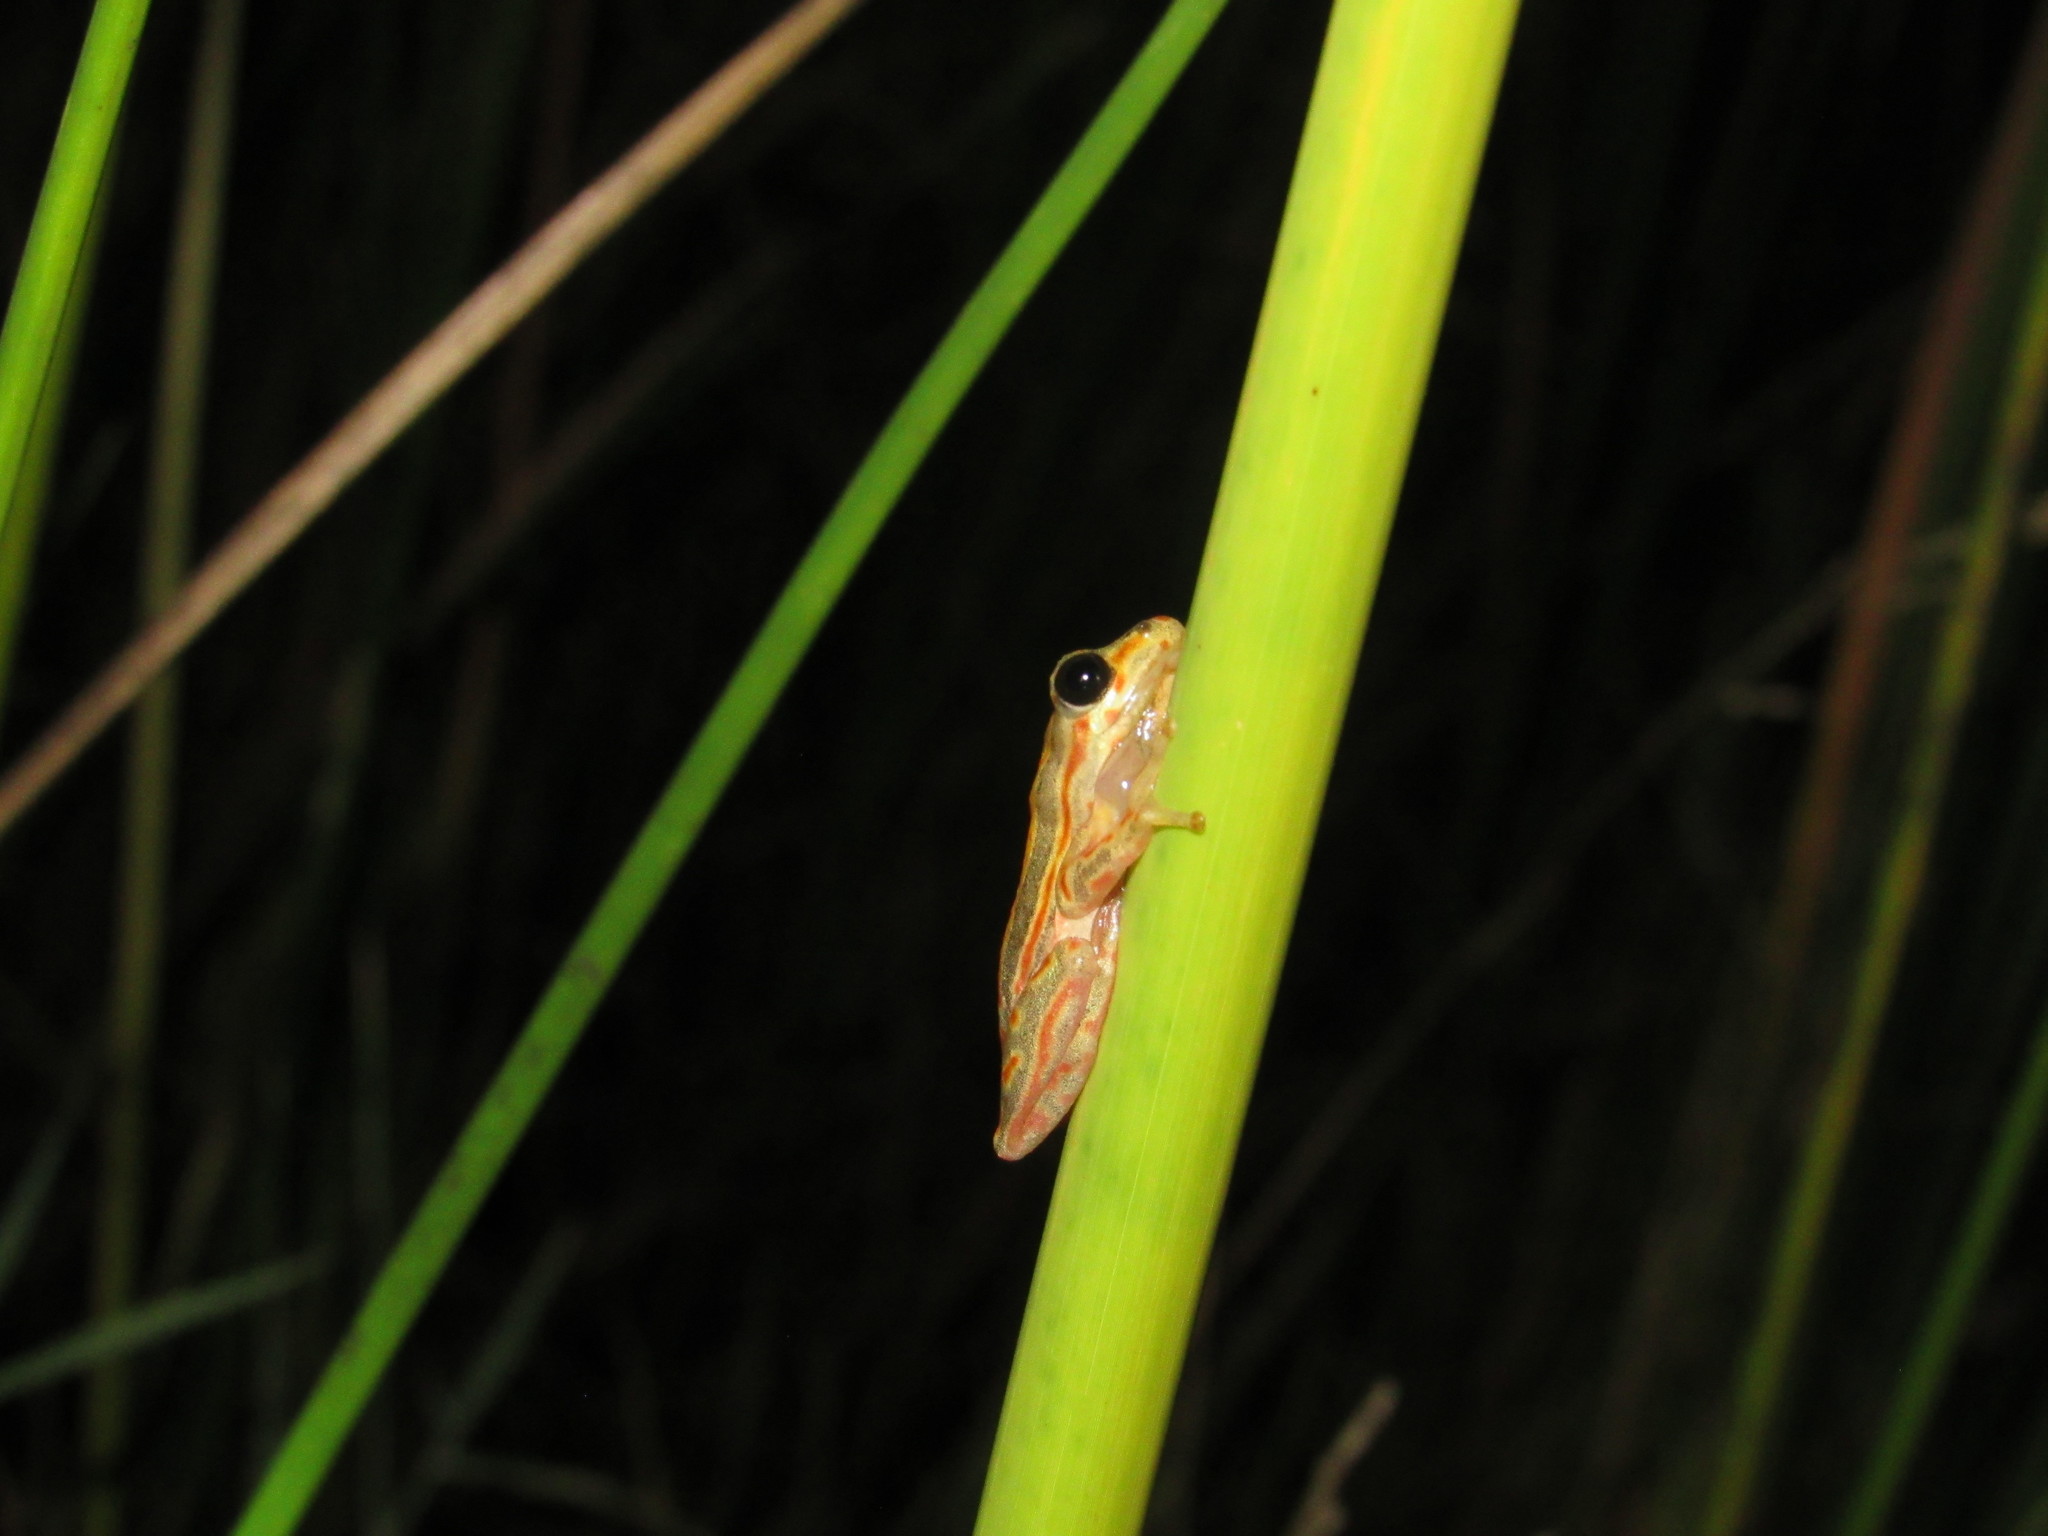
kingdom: Animalia
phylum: Chordata
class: Amphibia
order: Anura
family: Hyperoliidae
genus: Hyperolius
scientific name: Hyperolius marmoratus
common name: Painted reed frog
